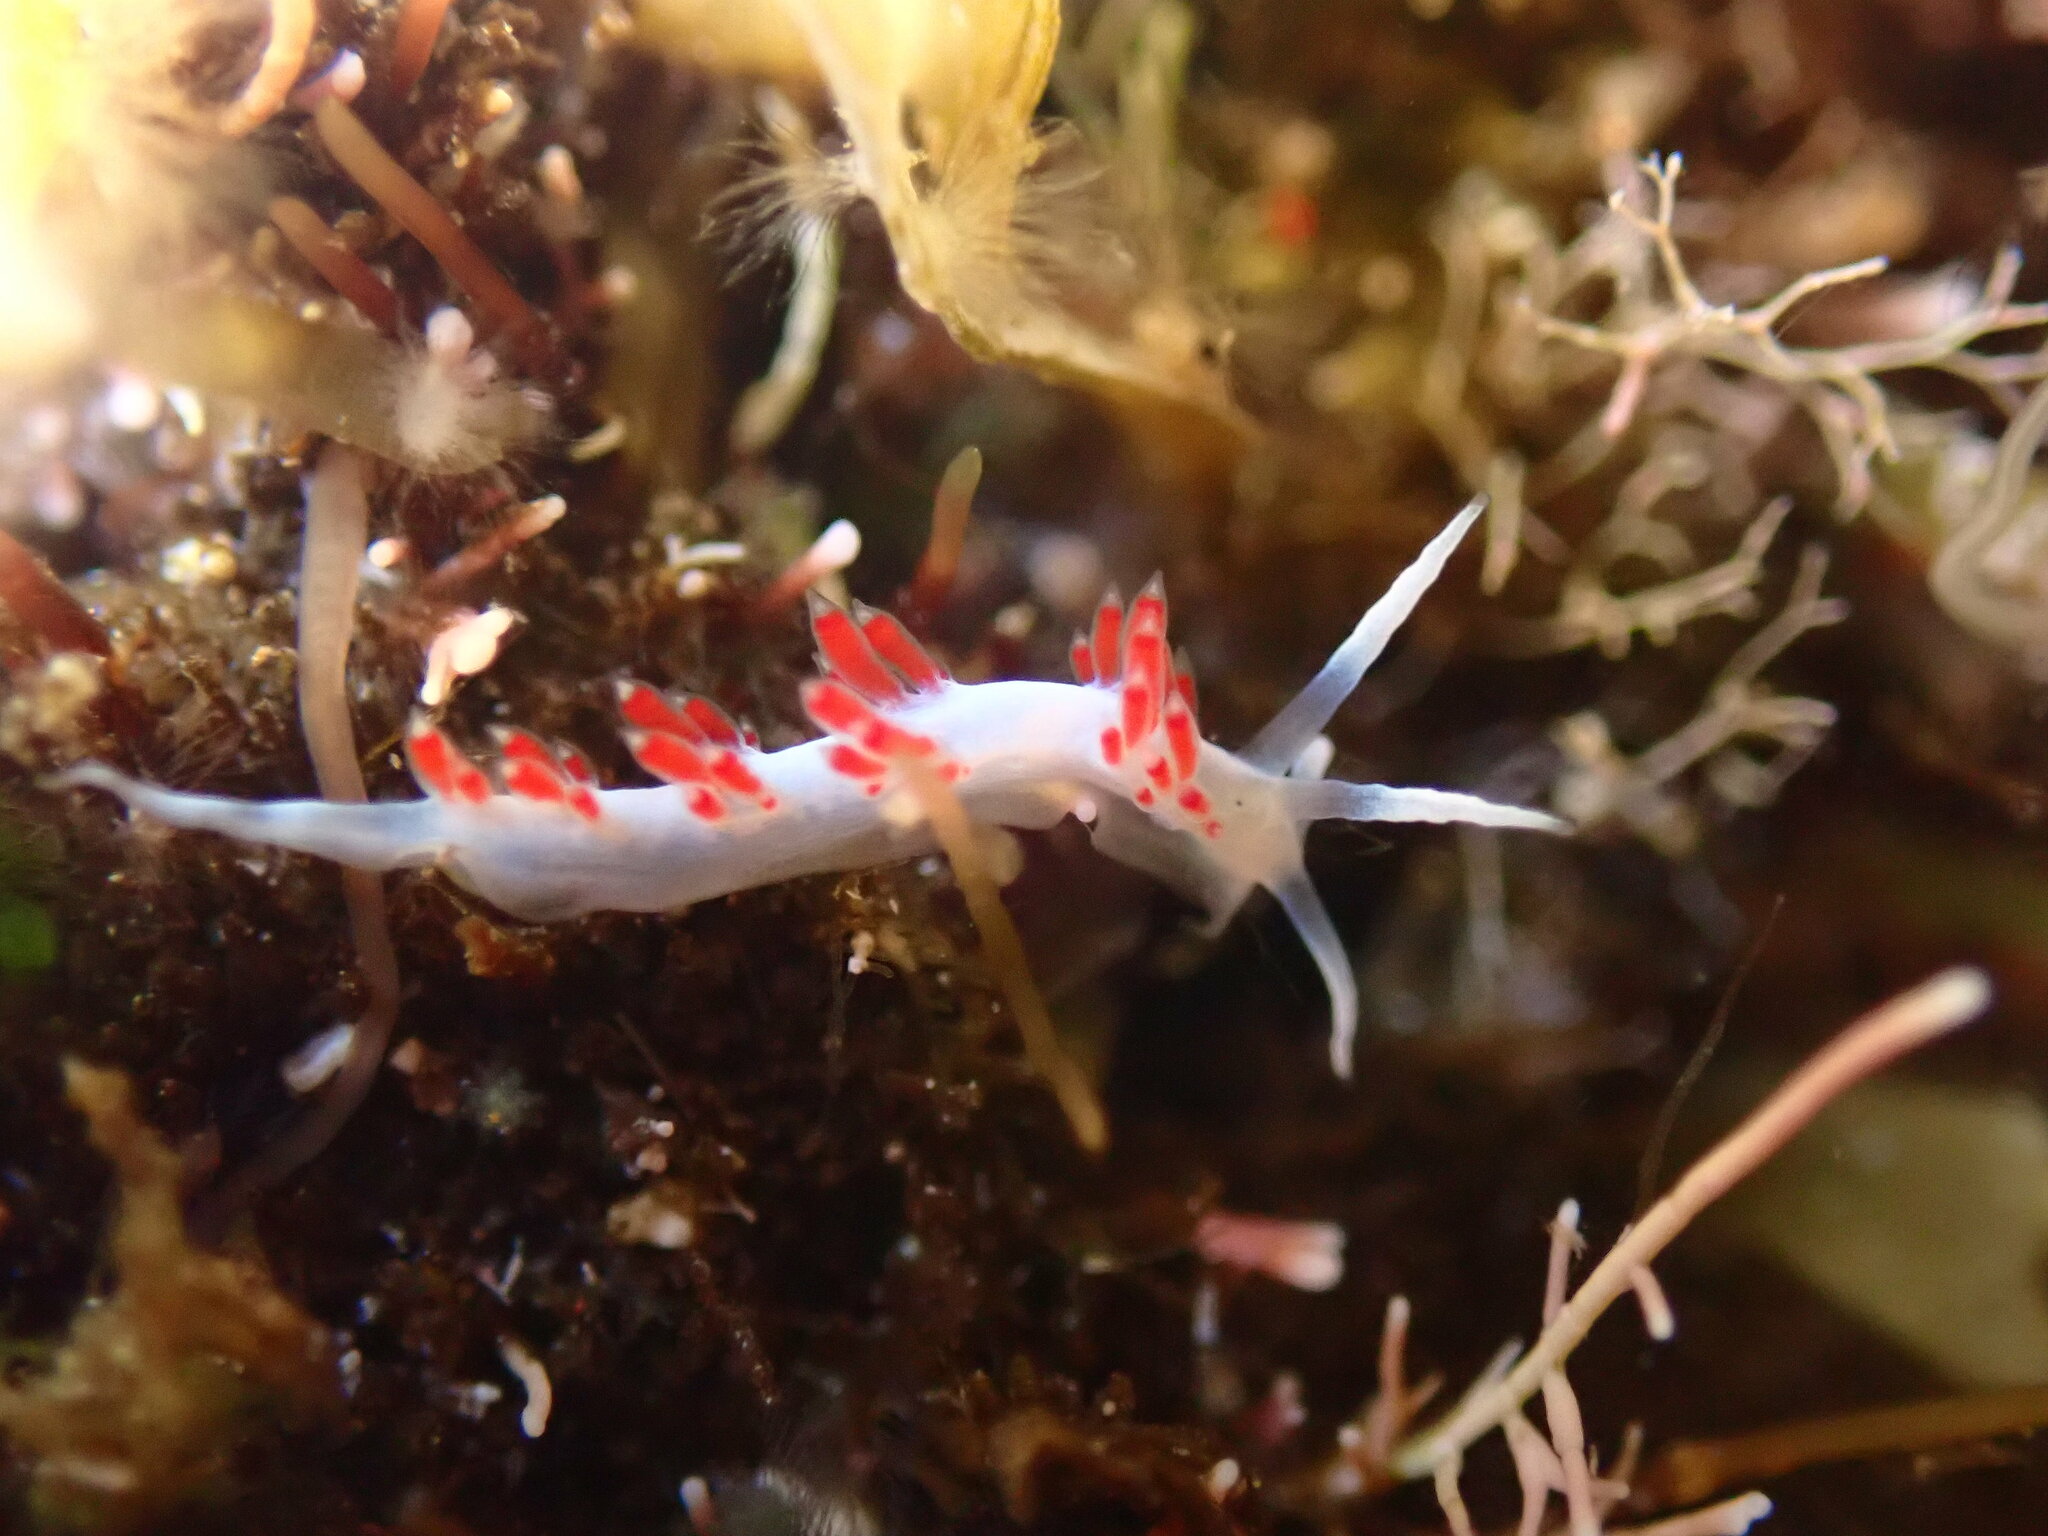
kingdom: Animalia
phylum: Mollusca
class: Gastropoda
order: Nudibranchia
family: Flabellinidae
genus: Flabellina
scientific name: Flabellina dushia
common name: Dushia flabellina
